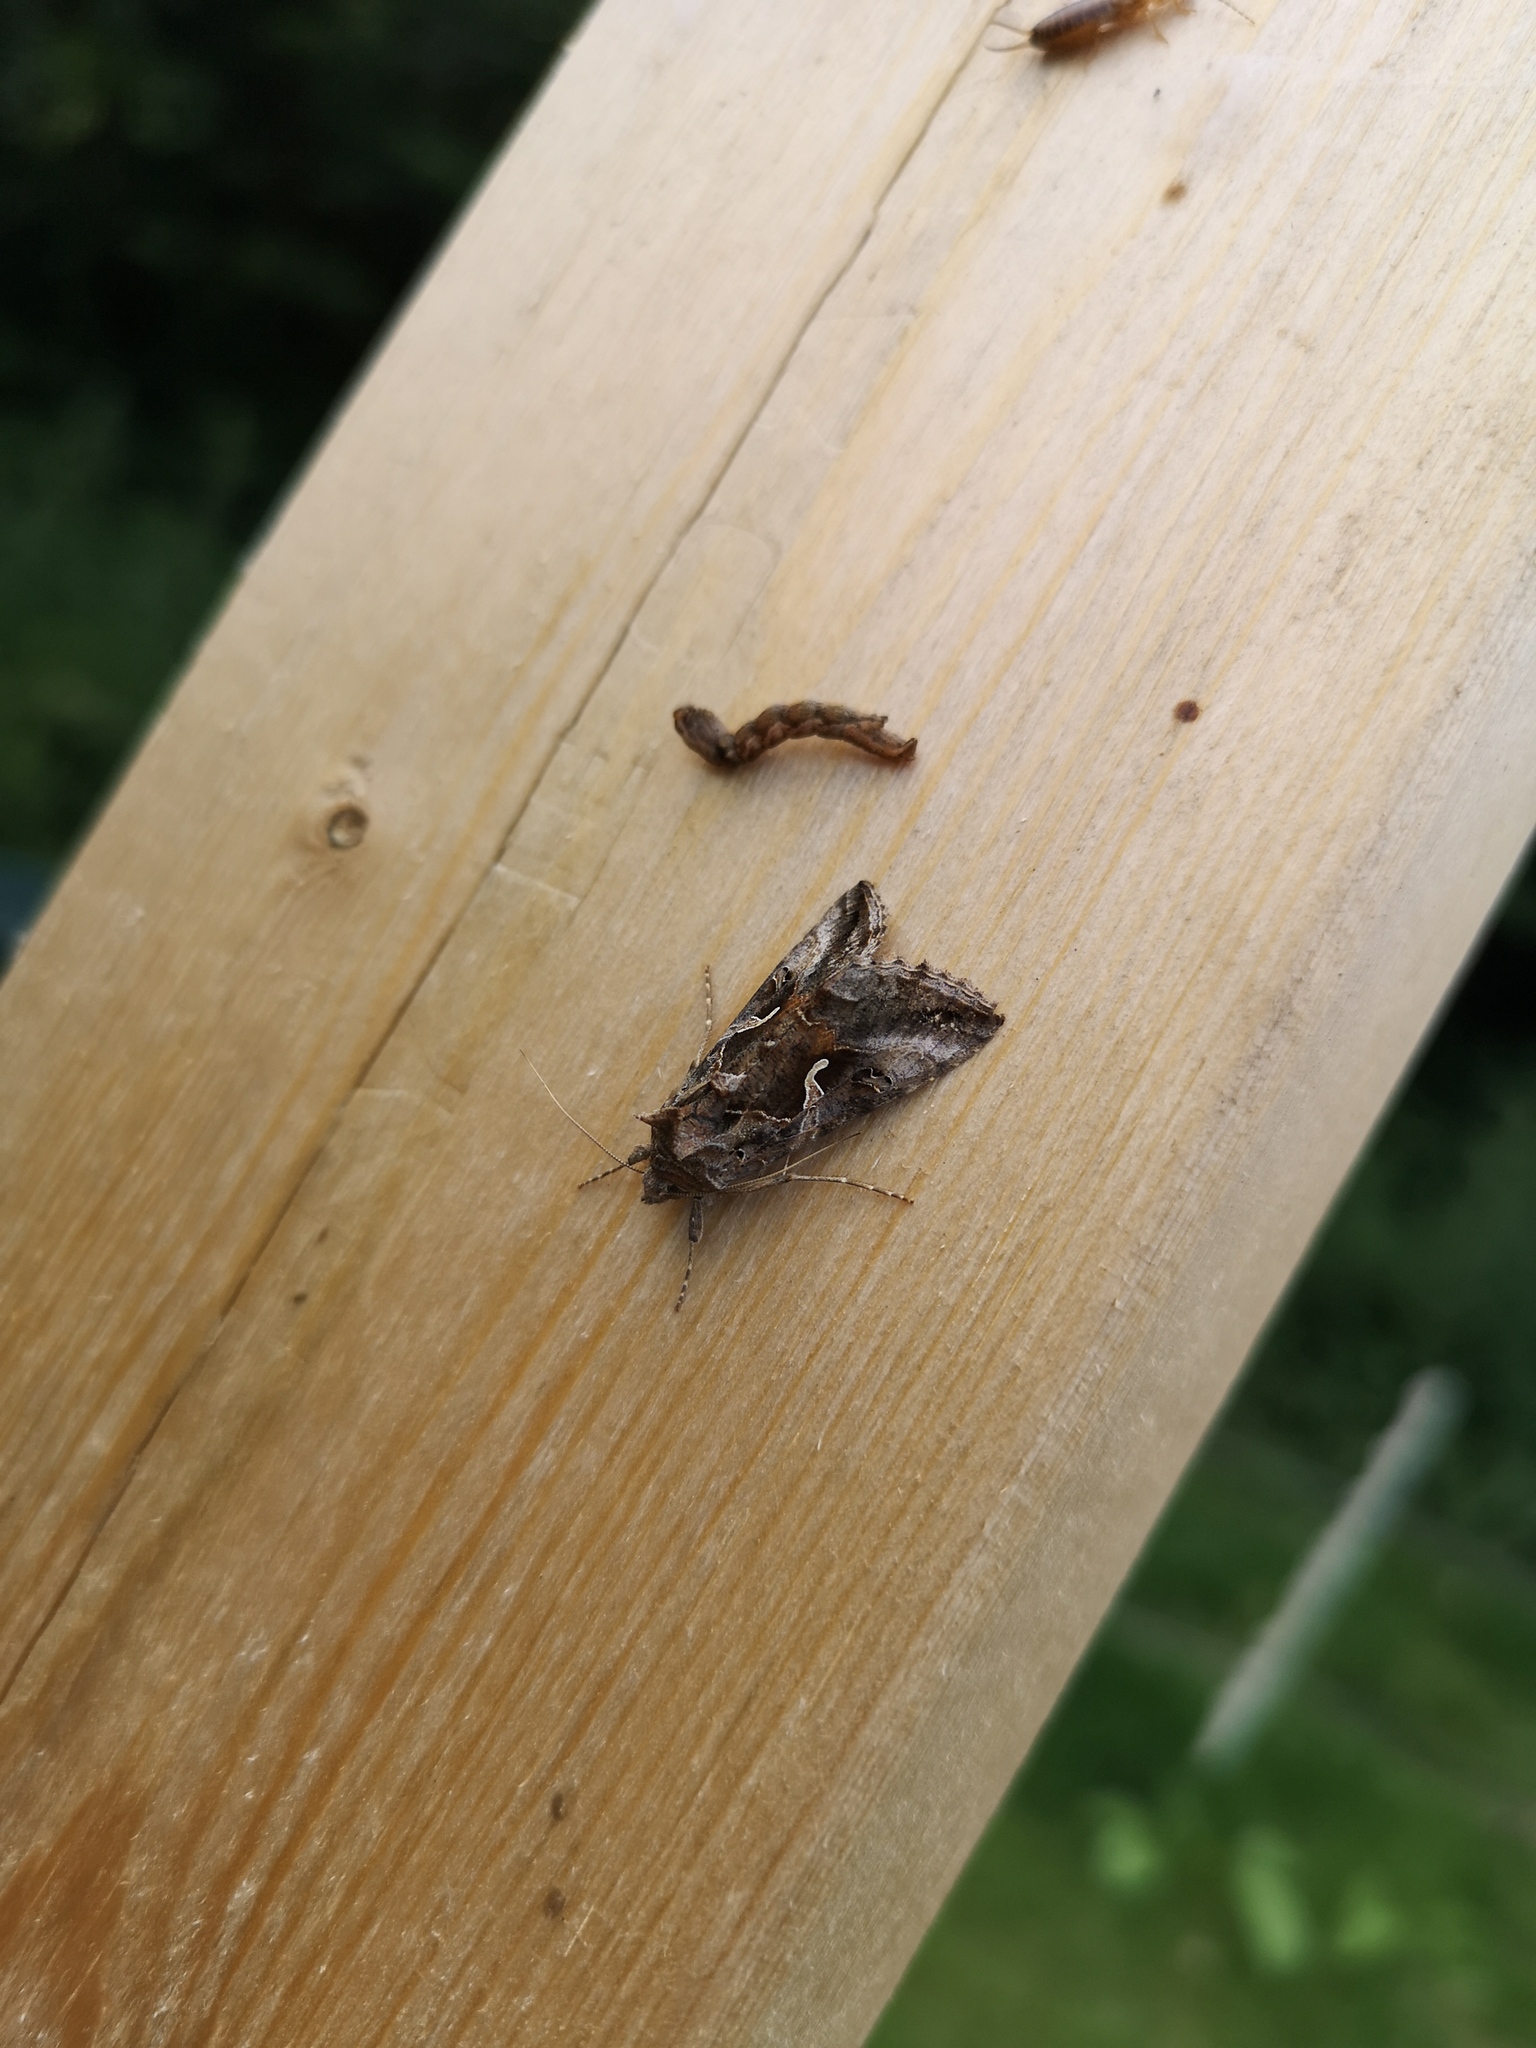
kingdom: Animalia
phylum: Arthropoda
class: Insecta
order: Lepidoptera
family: Noctuidae
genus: Autographa
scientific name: Autographa gamma
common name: Silver y
